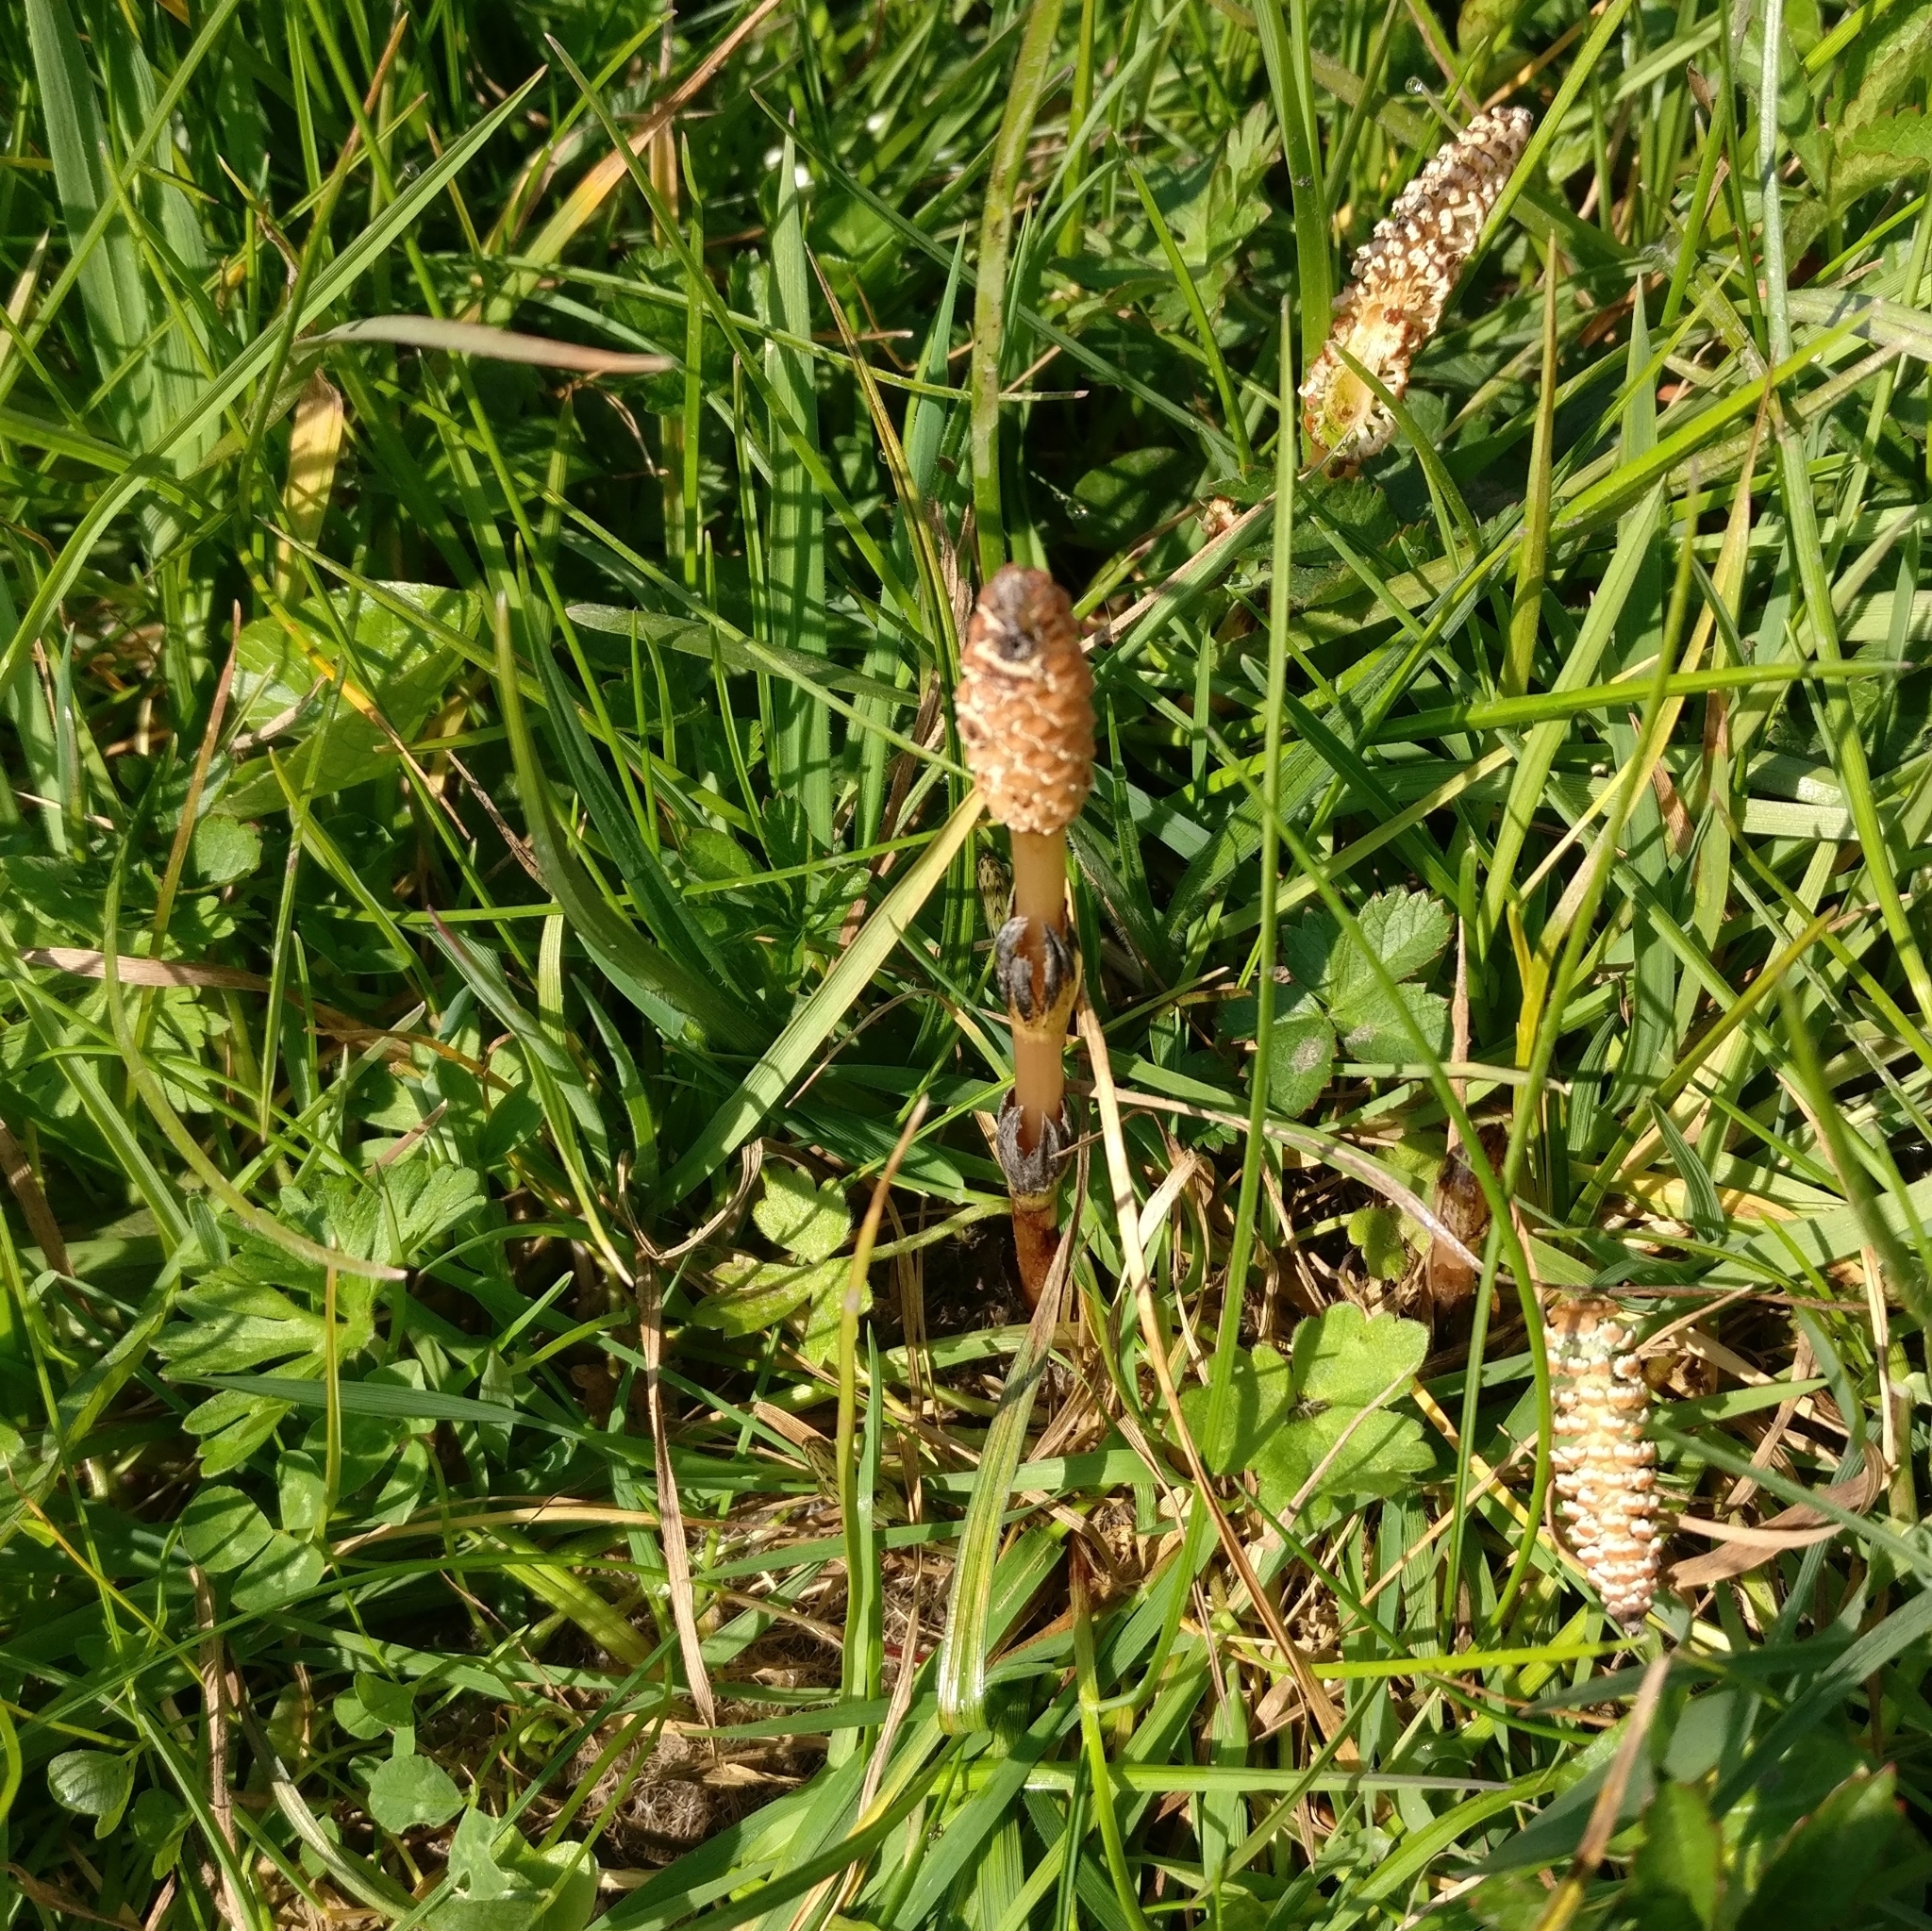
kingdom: Plantae
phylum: Tracheophyta
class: Polypodiopsida
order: Equisetales
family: Equisetaceae
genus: Equisetum
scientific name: Equisetum arvense
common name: Field horsetail
